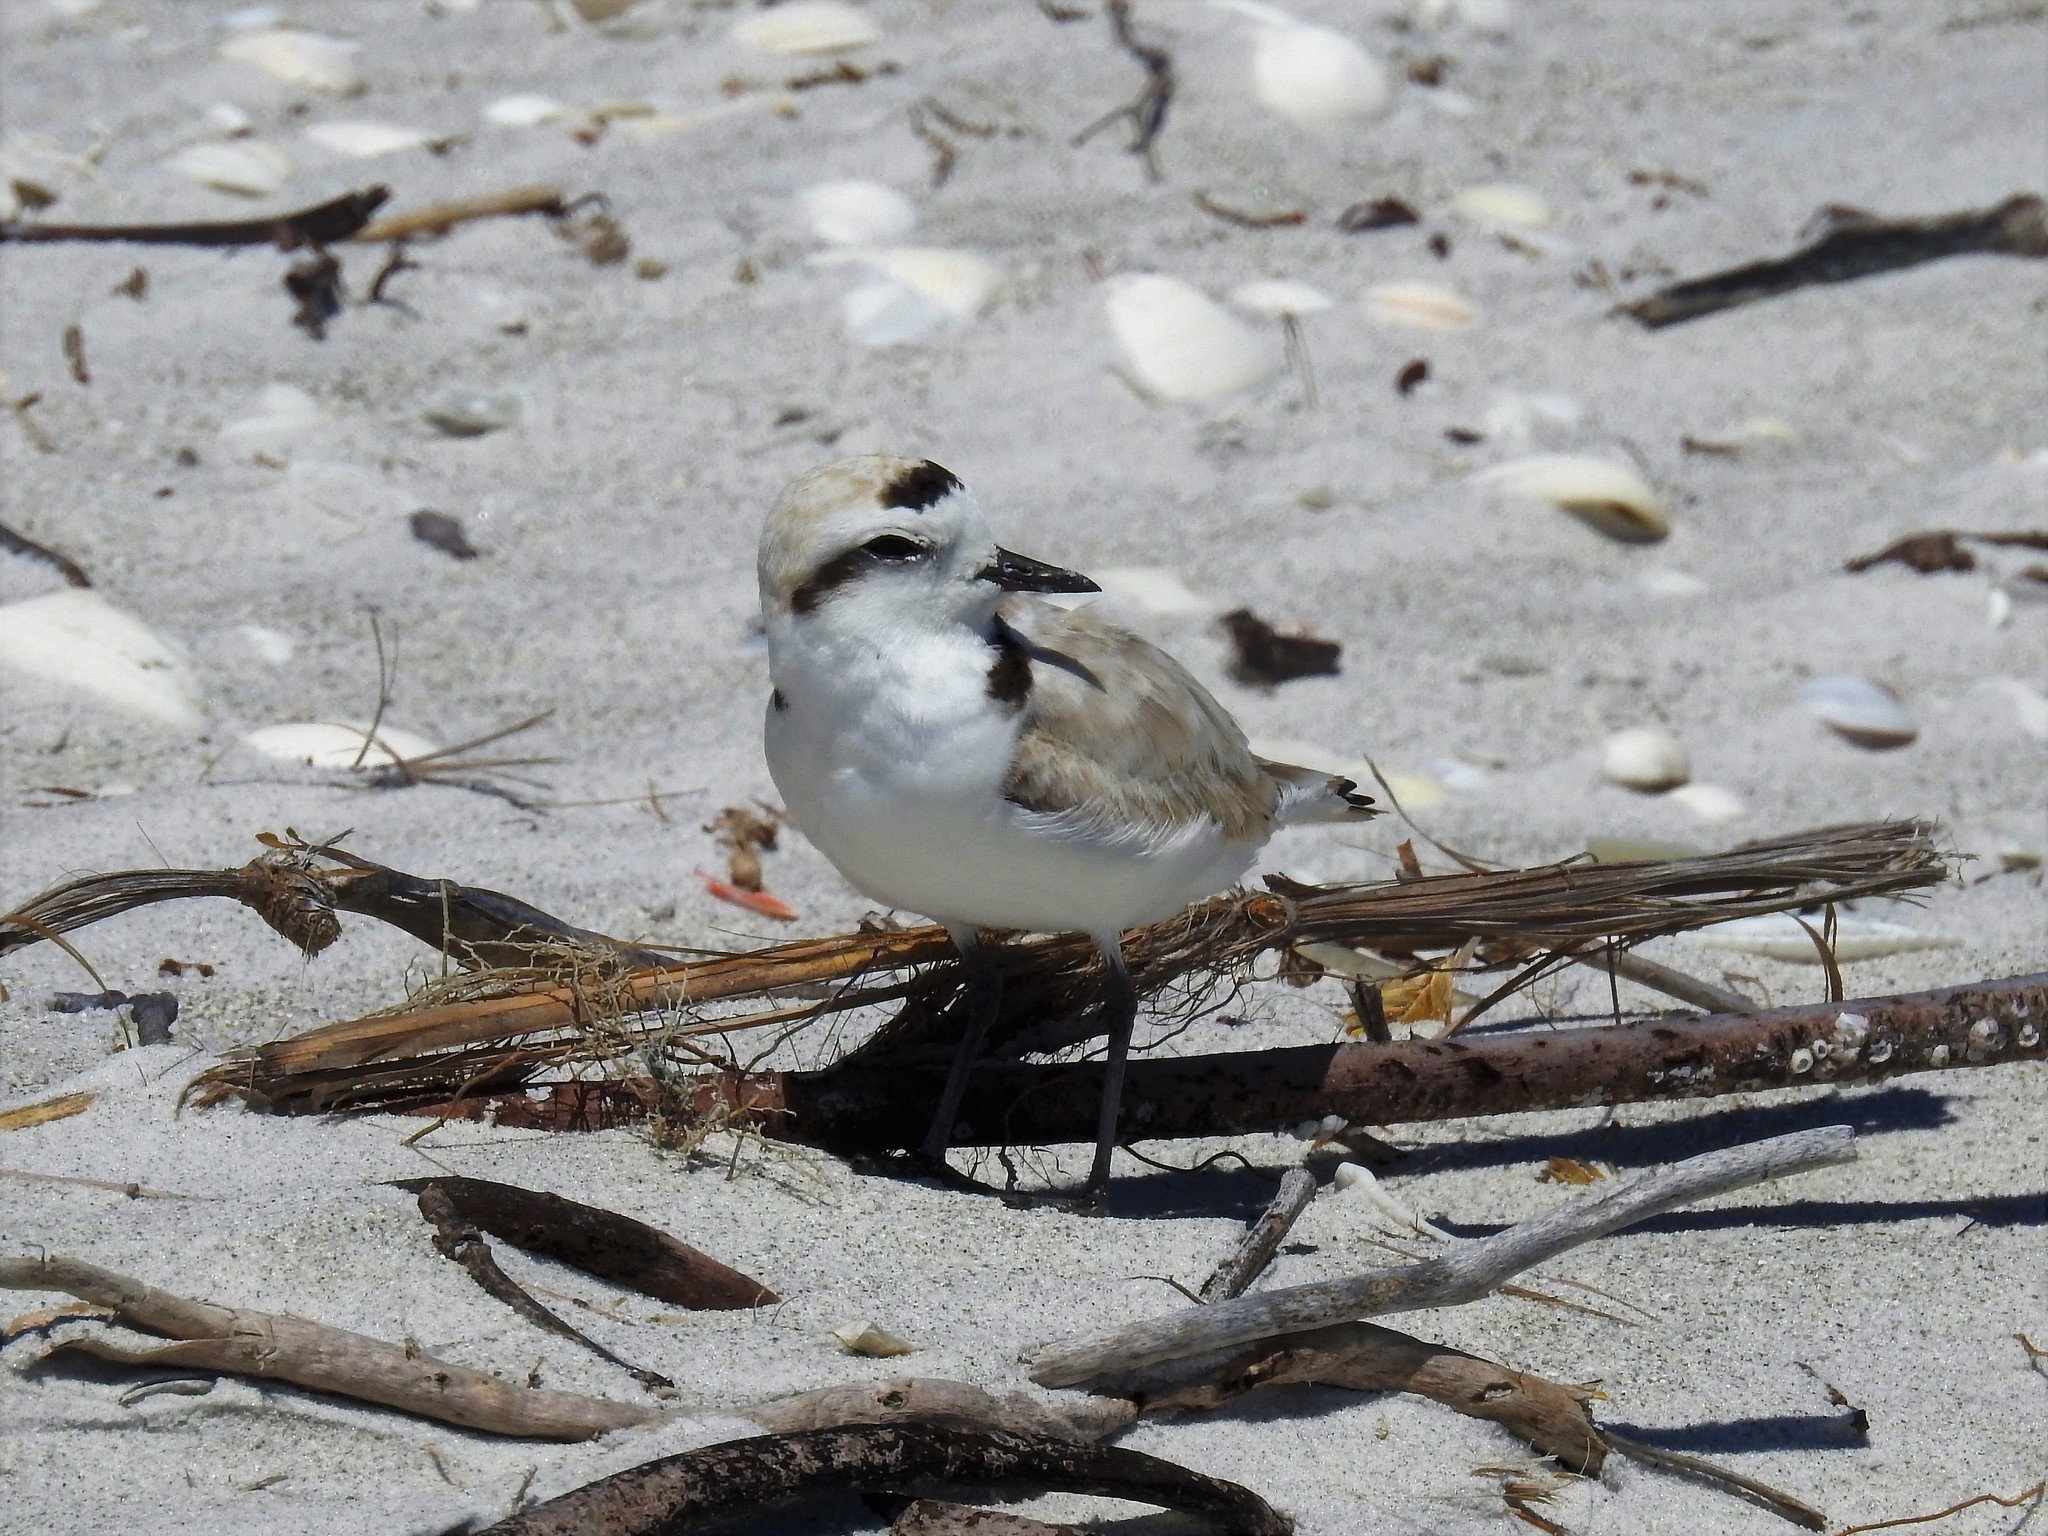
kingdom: Animalia
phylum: Chordata
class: Aves
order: Charadriiformes
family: Charadriidae
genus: Anarhynchus
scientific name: Anarhynchus
